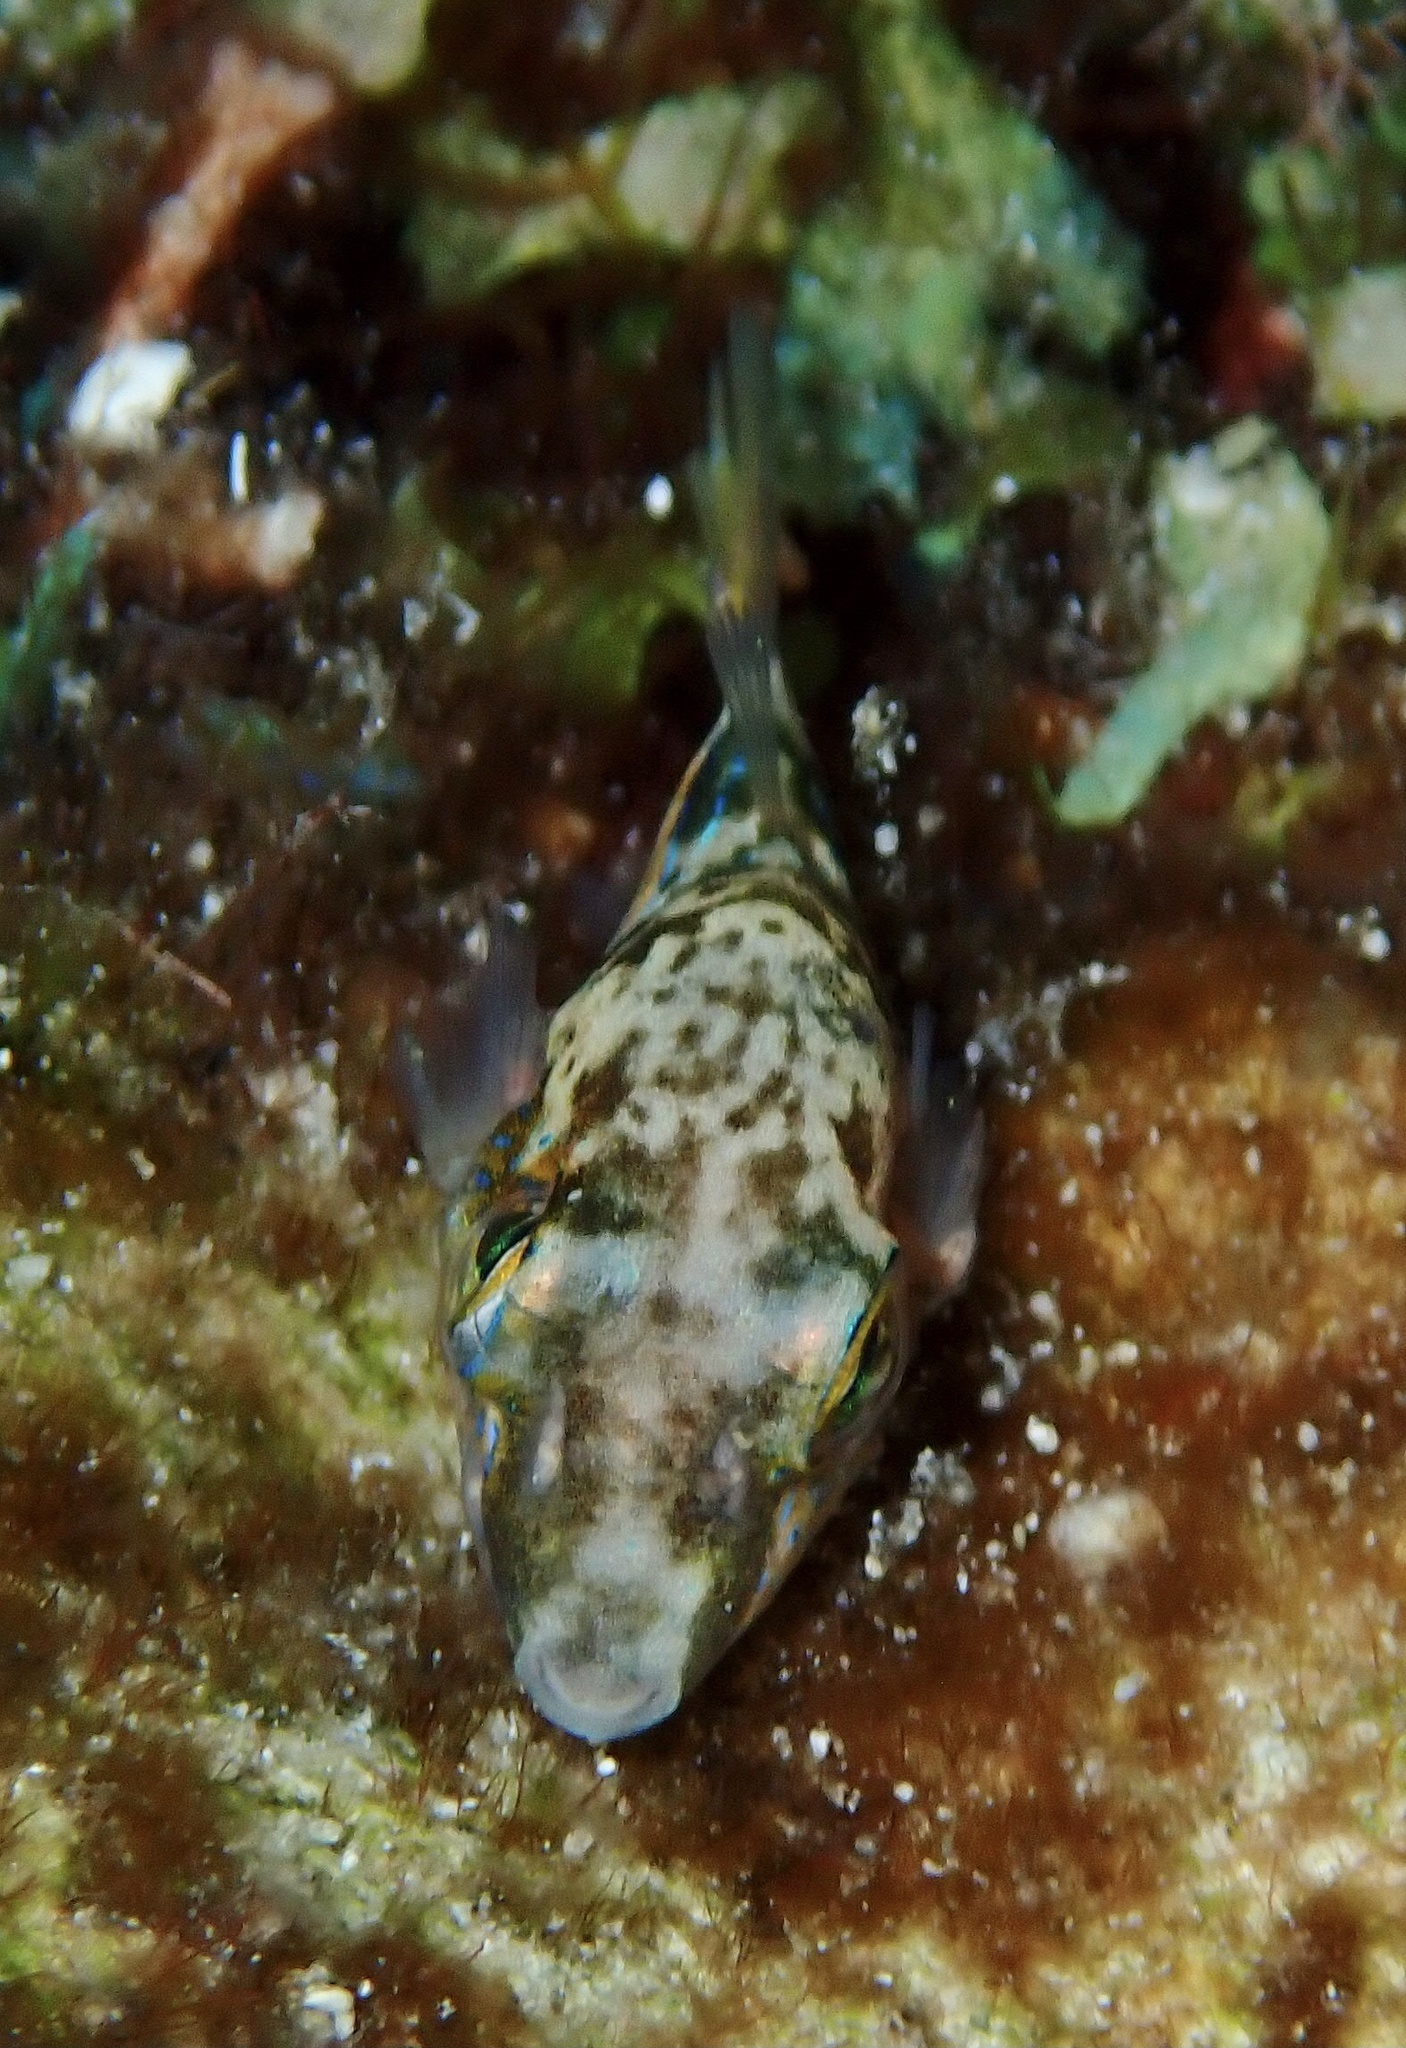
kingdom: Animalia
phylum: Chordata
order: Tetraodontiformes
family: Tetraodontidae
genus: Canthigaster
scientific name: Canthigaster rostrata
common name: Caribbean sharpnose-puffer
